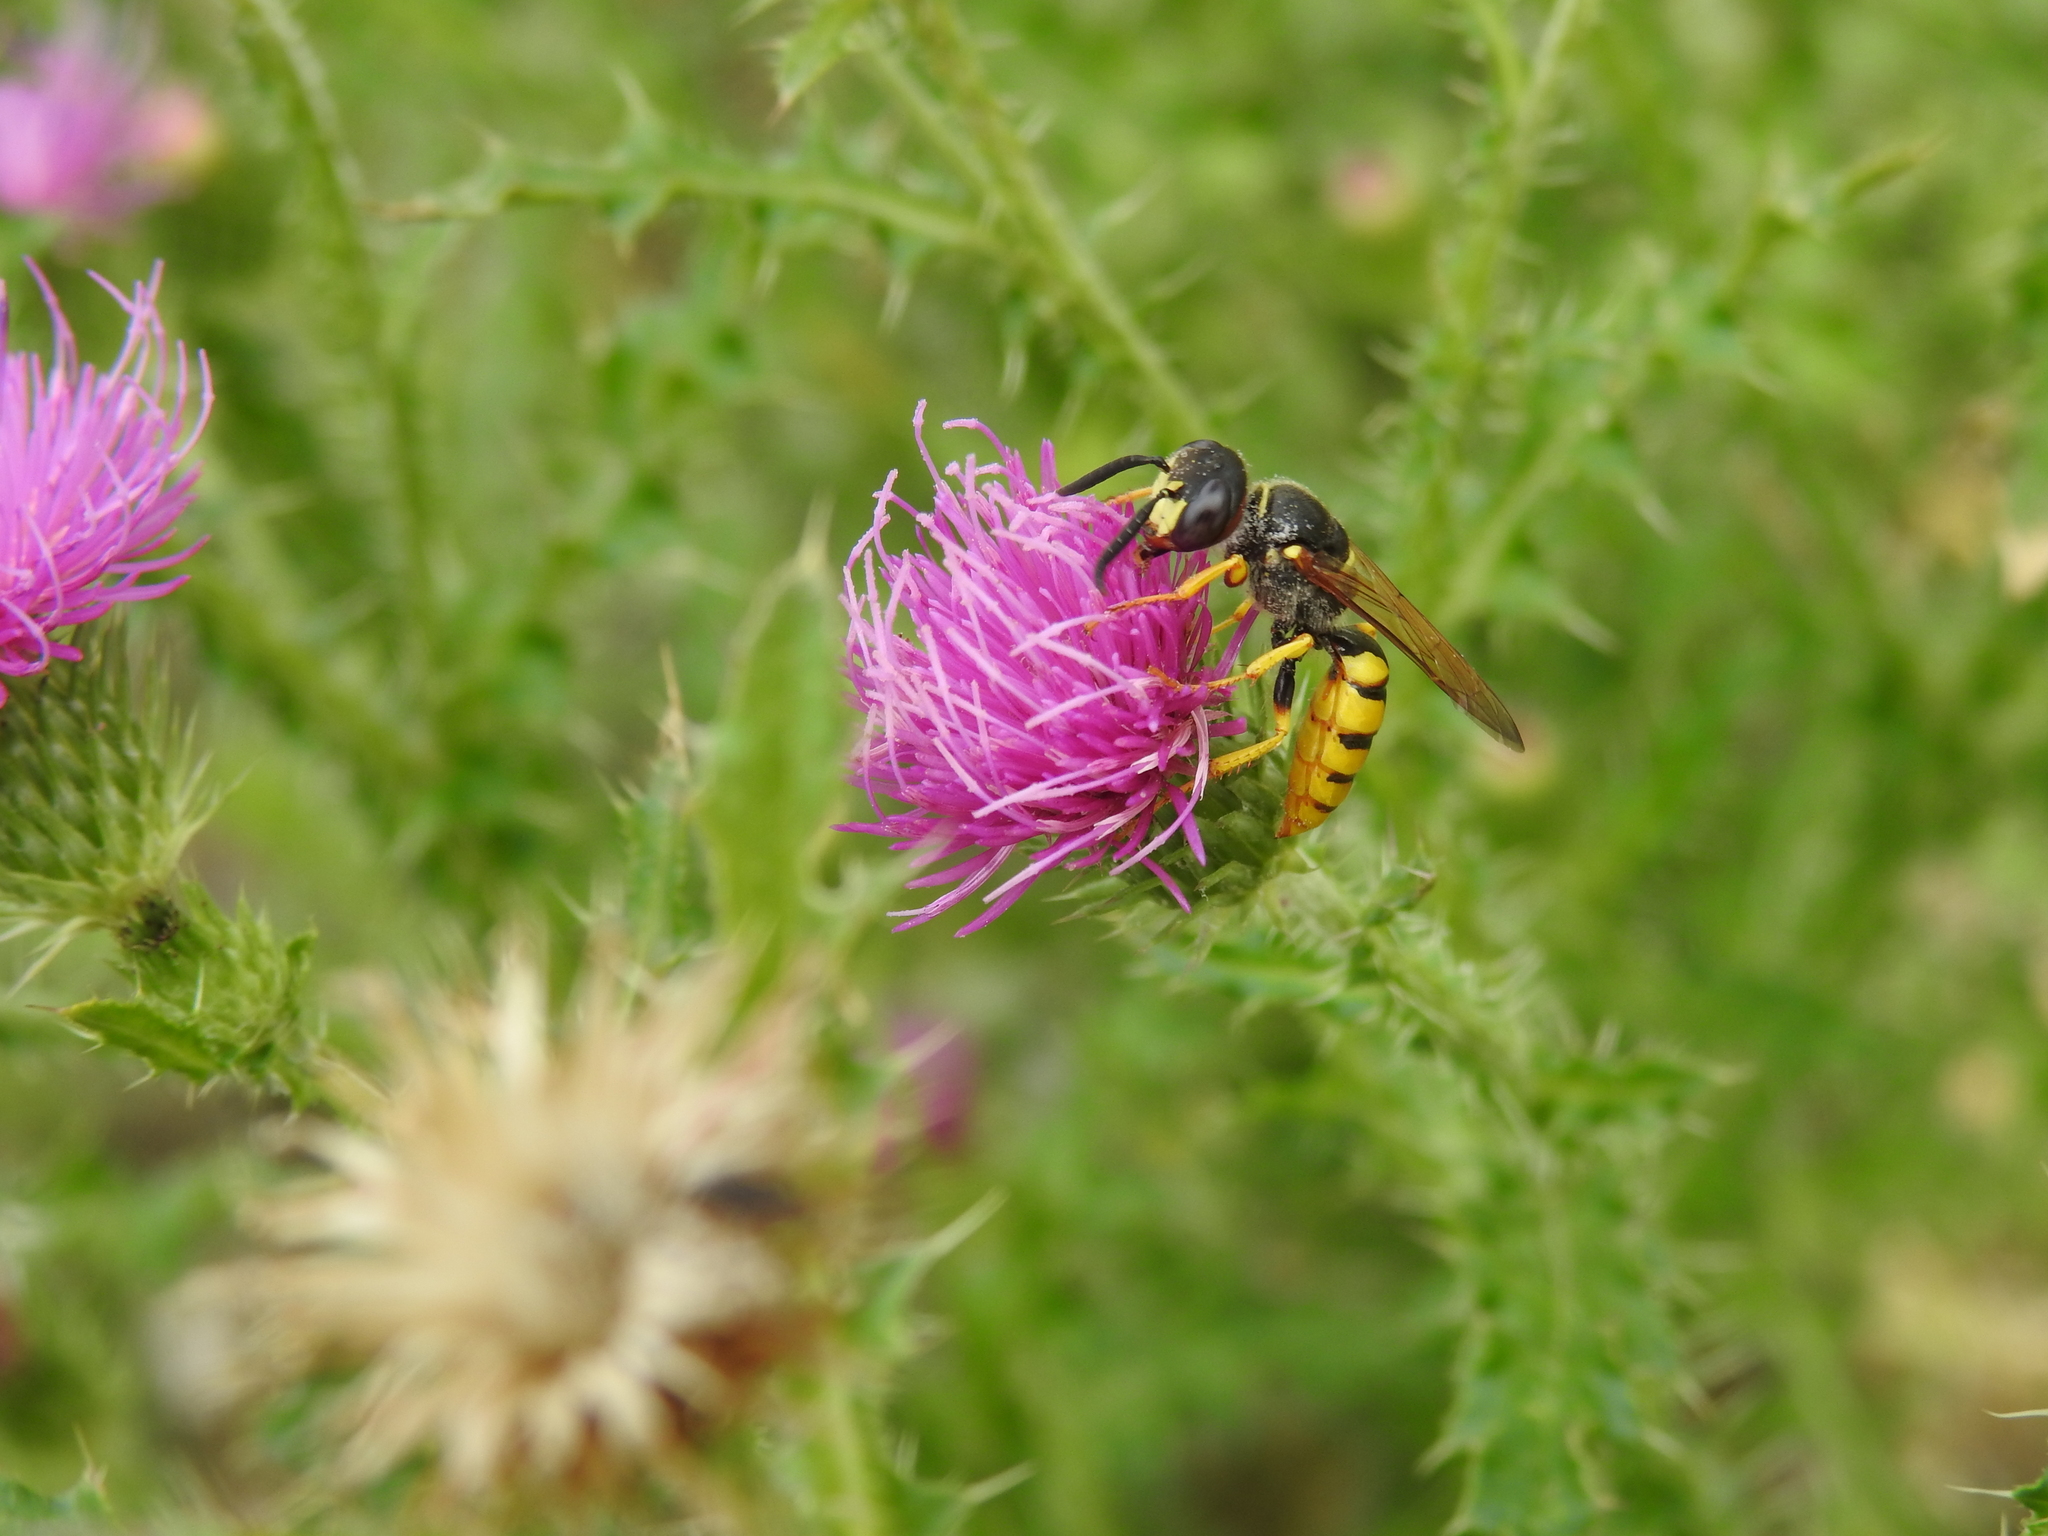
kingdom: Animalia
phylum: Arthropoda
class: Insecta
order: Hymenoptera
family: Crabronidae
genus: Philanthus
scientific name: Philanthus triangulum
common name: Bee wolf
